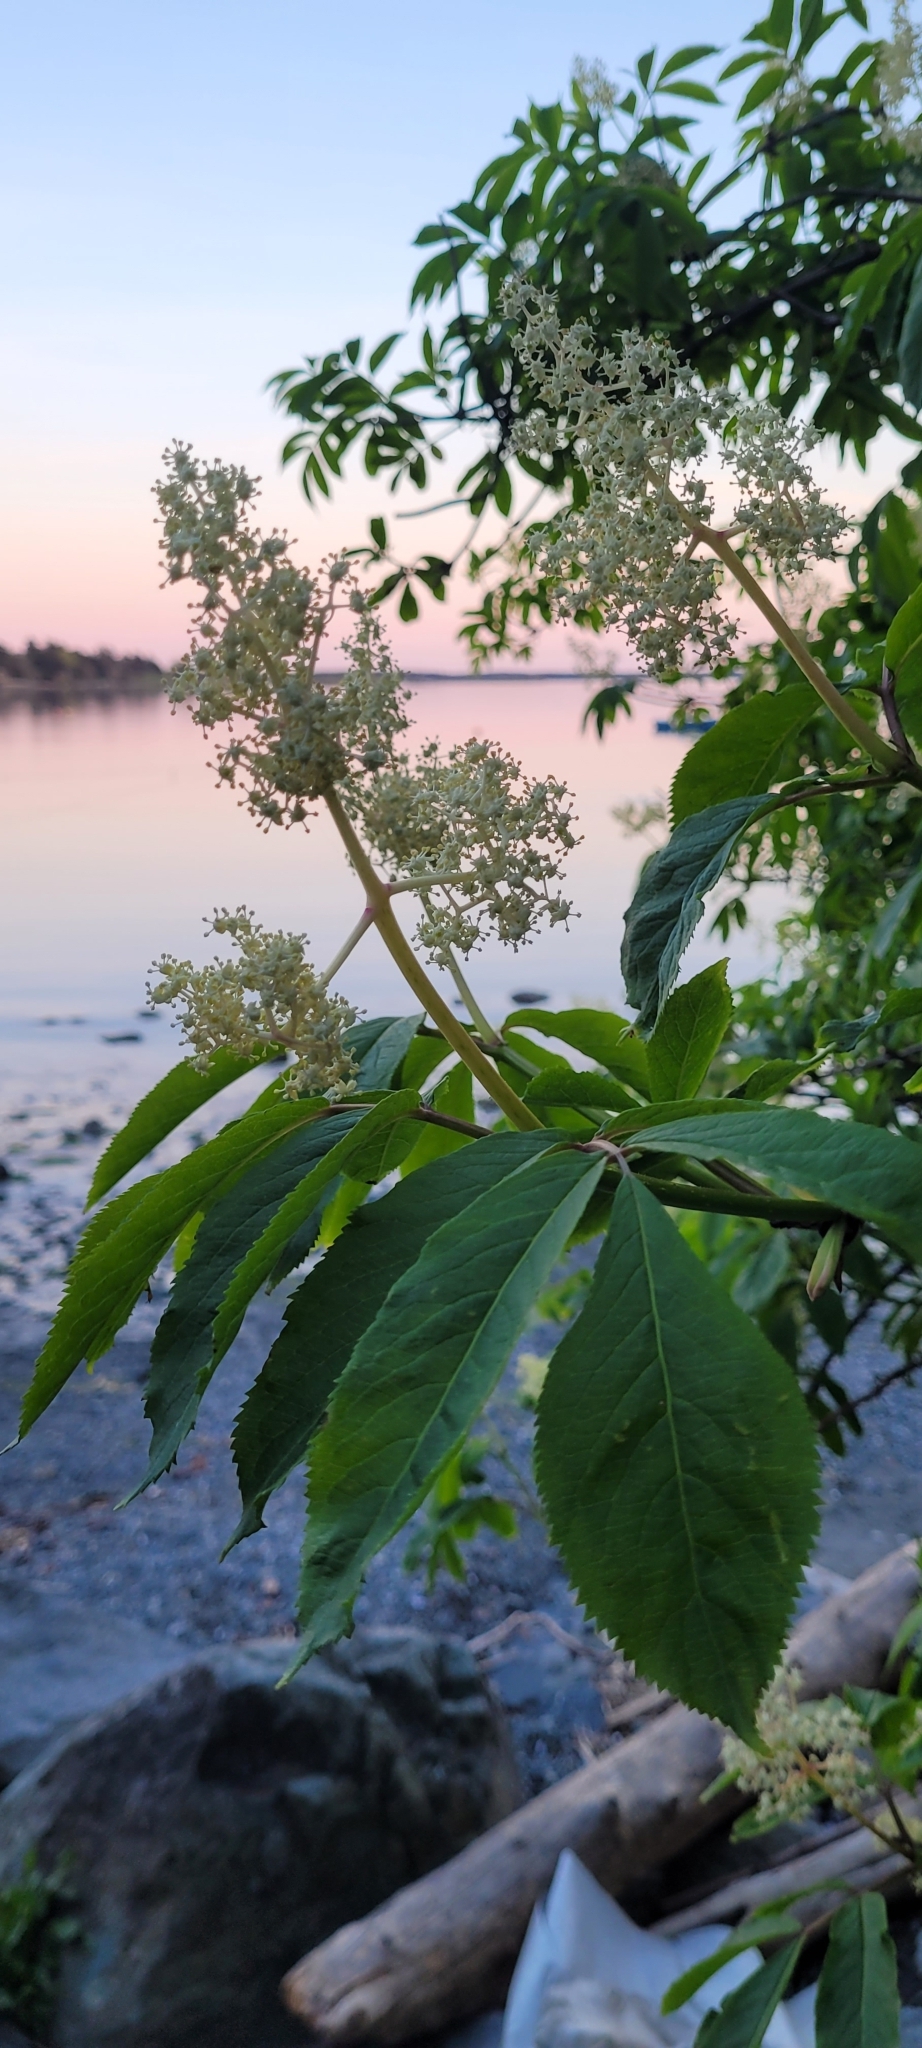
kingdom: Plantae
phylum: Tracheophyta
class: Magnoliopsida
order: Dipsacales
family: Viburnaceae
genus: Sambucus
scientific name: Sambucus racemosa
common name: Red-berried elder
